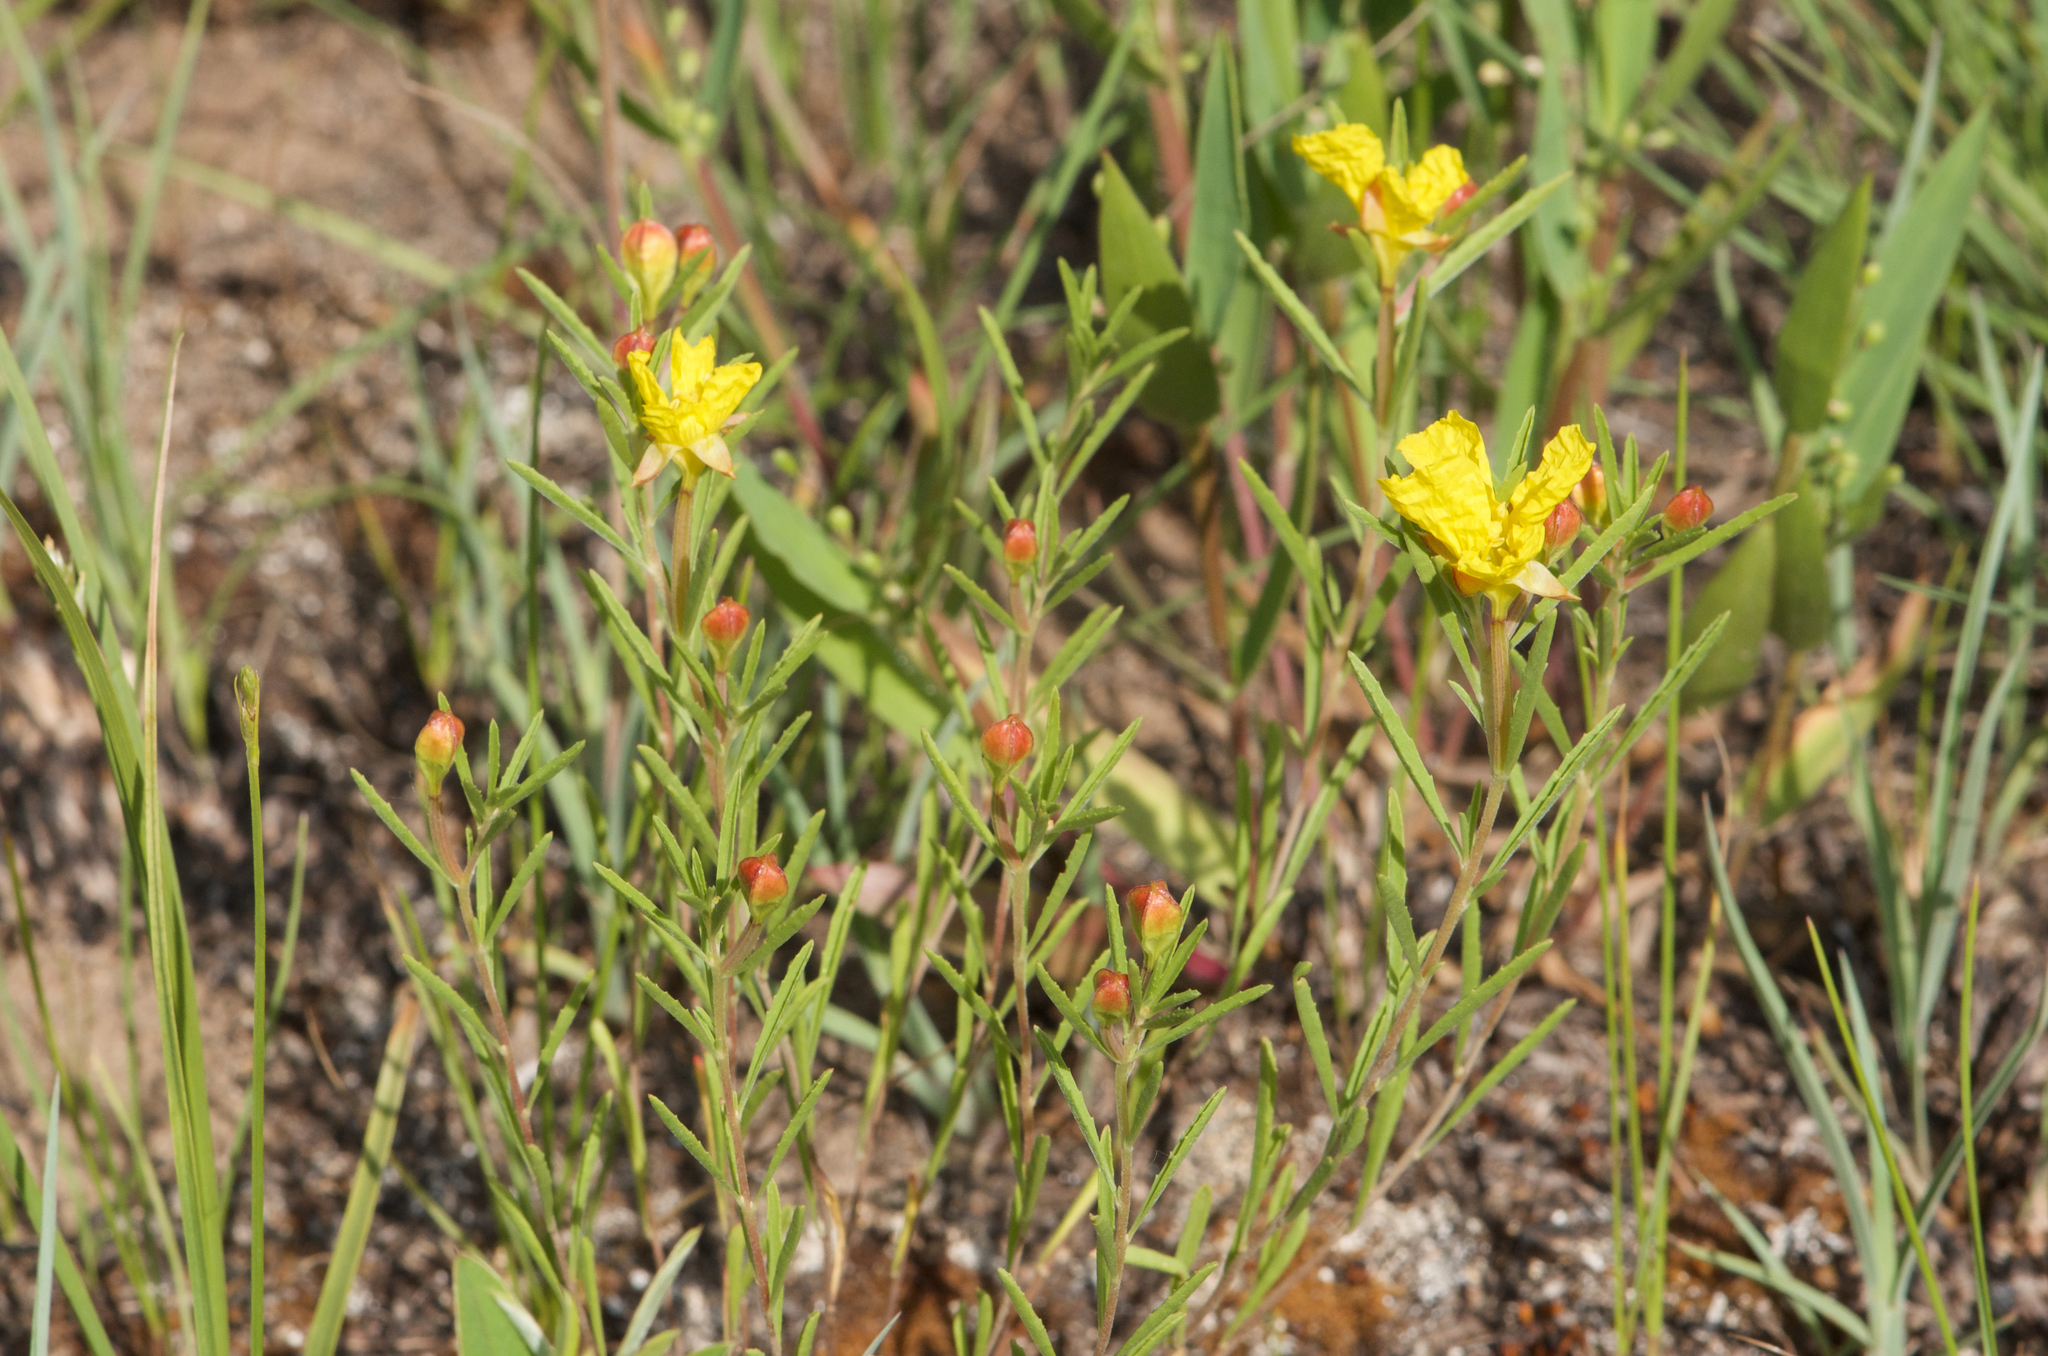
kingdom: Plantae
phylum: Tracheophyta
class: Magnoliopsida
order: Myrtales
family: Onagraceae
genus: Oenothera
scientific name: Oenothera serrulata
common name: Half-shrub calylophus
